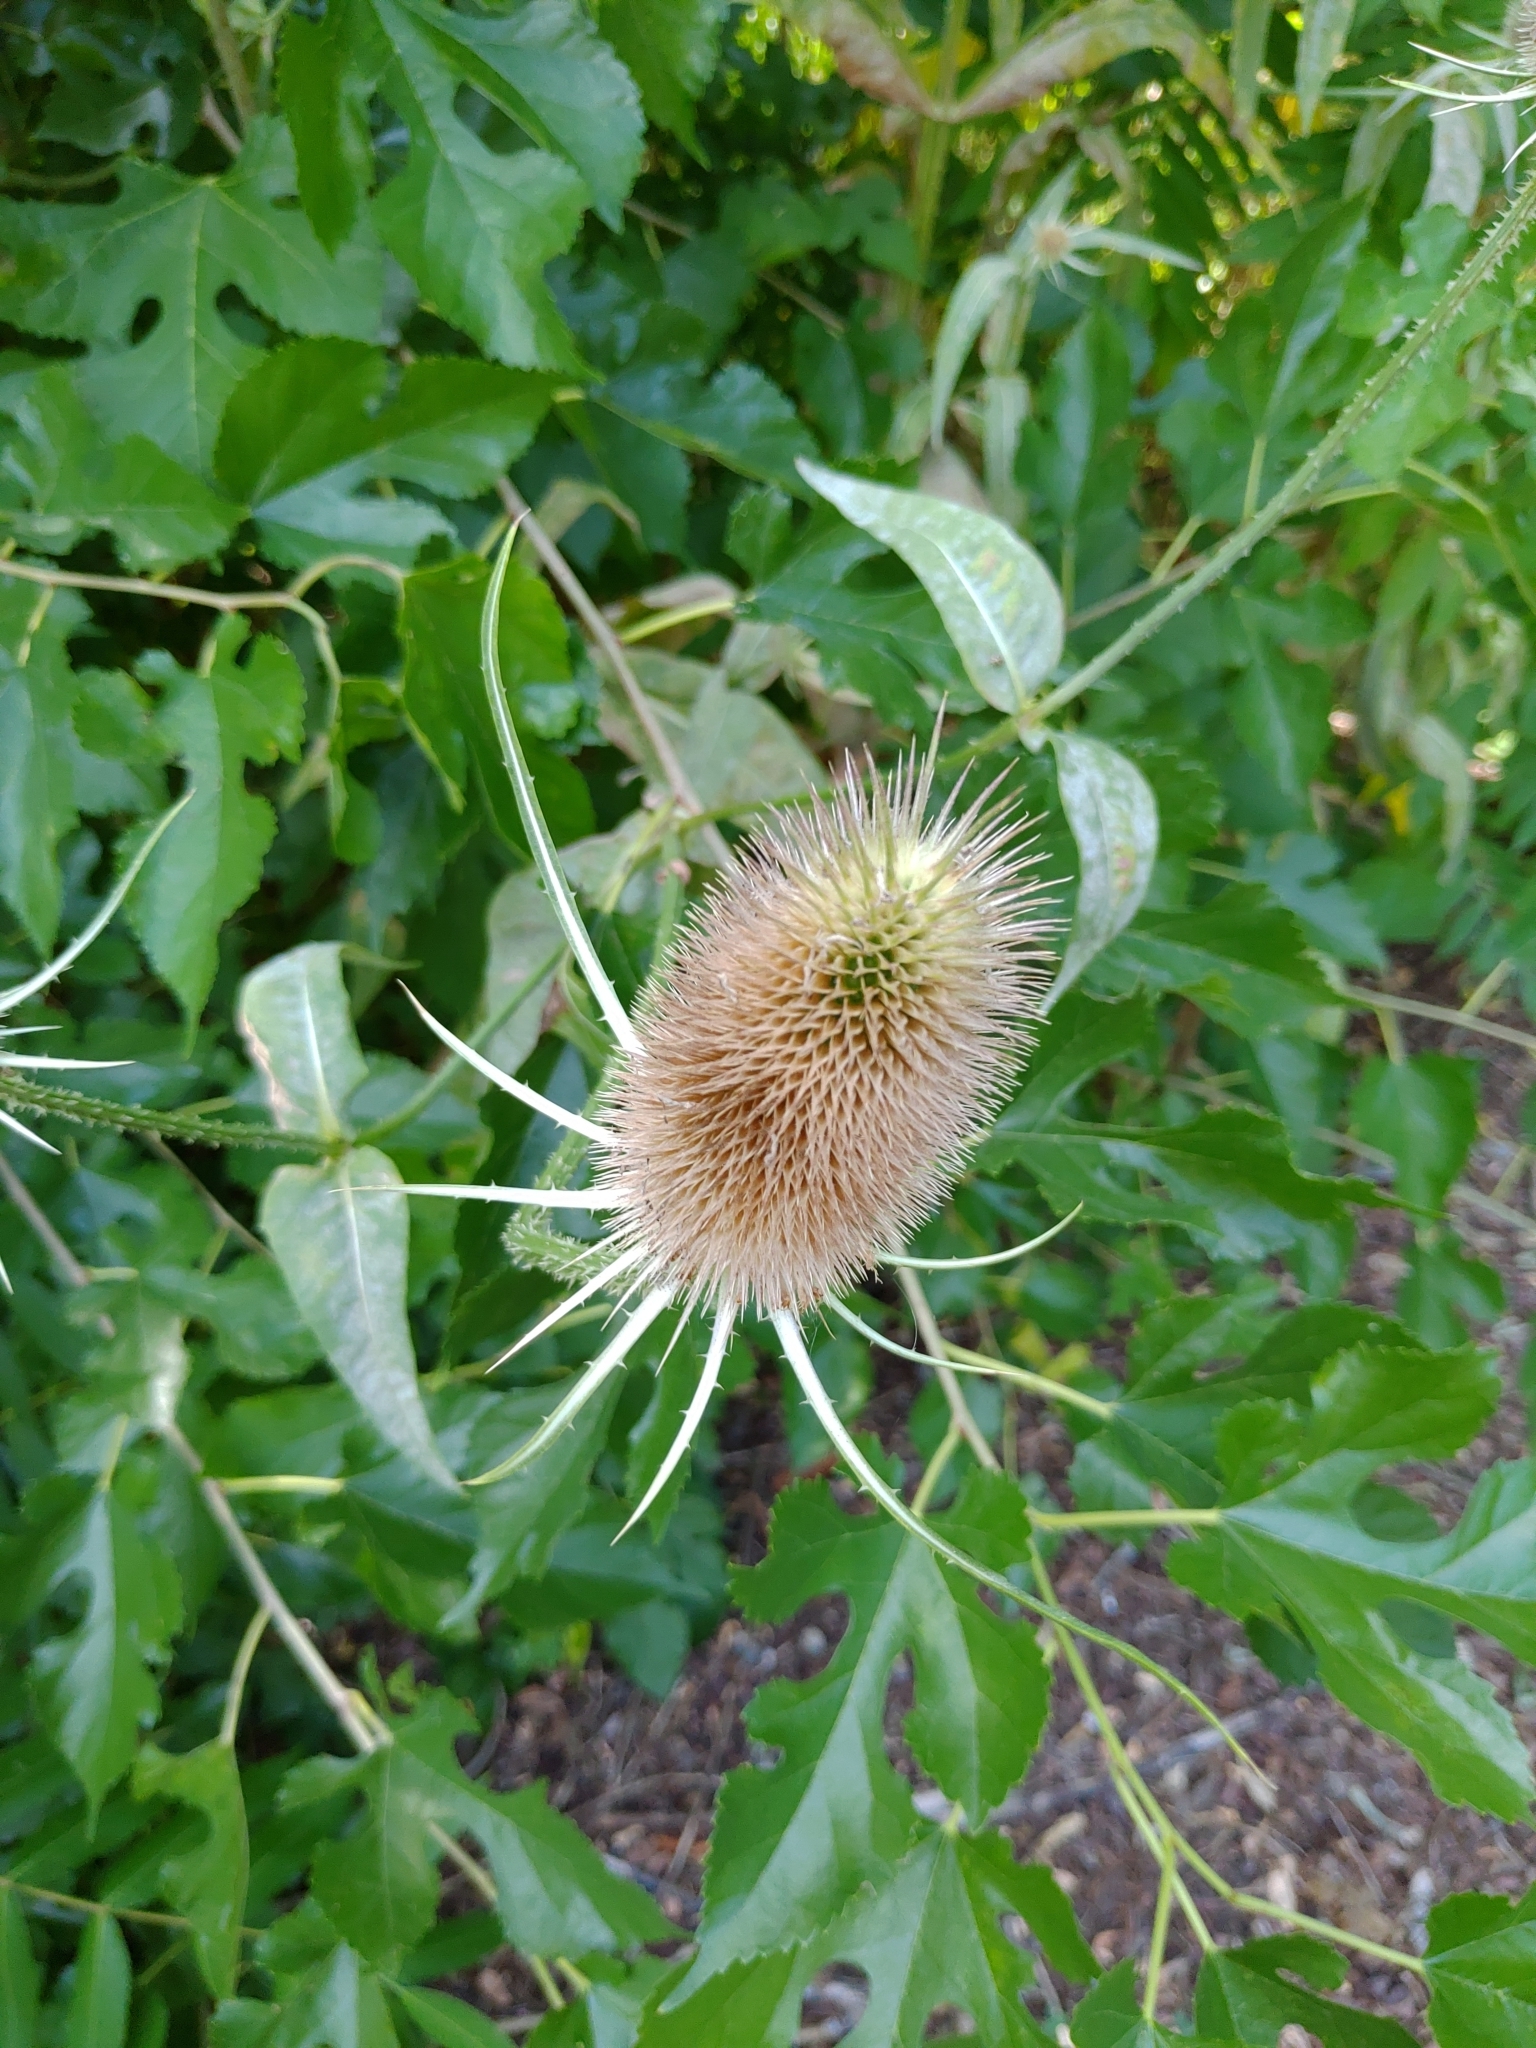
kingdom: Plantae
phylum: Tracheophyta
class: Magnoliopsida
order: Dipsacales
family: Caprifoliaceae
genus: Dipsacus
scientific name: Dipsacus fullonum
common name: Teasel
